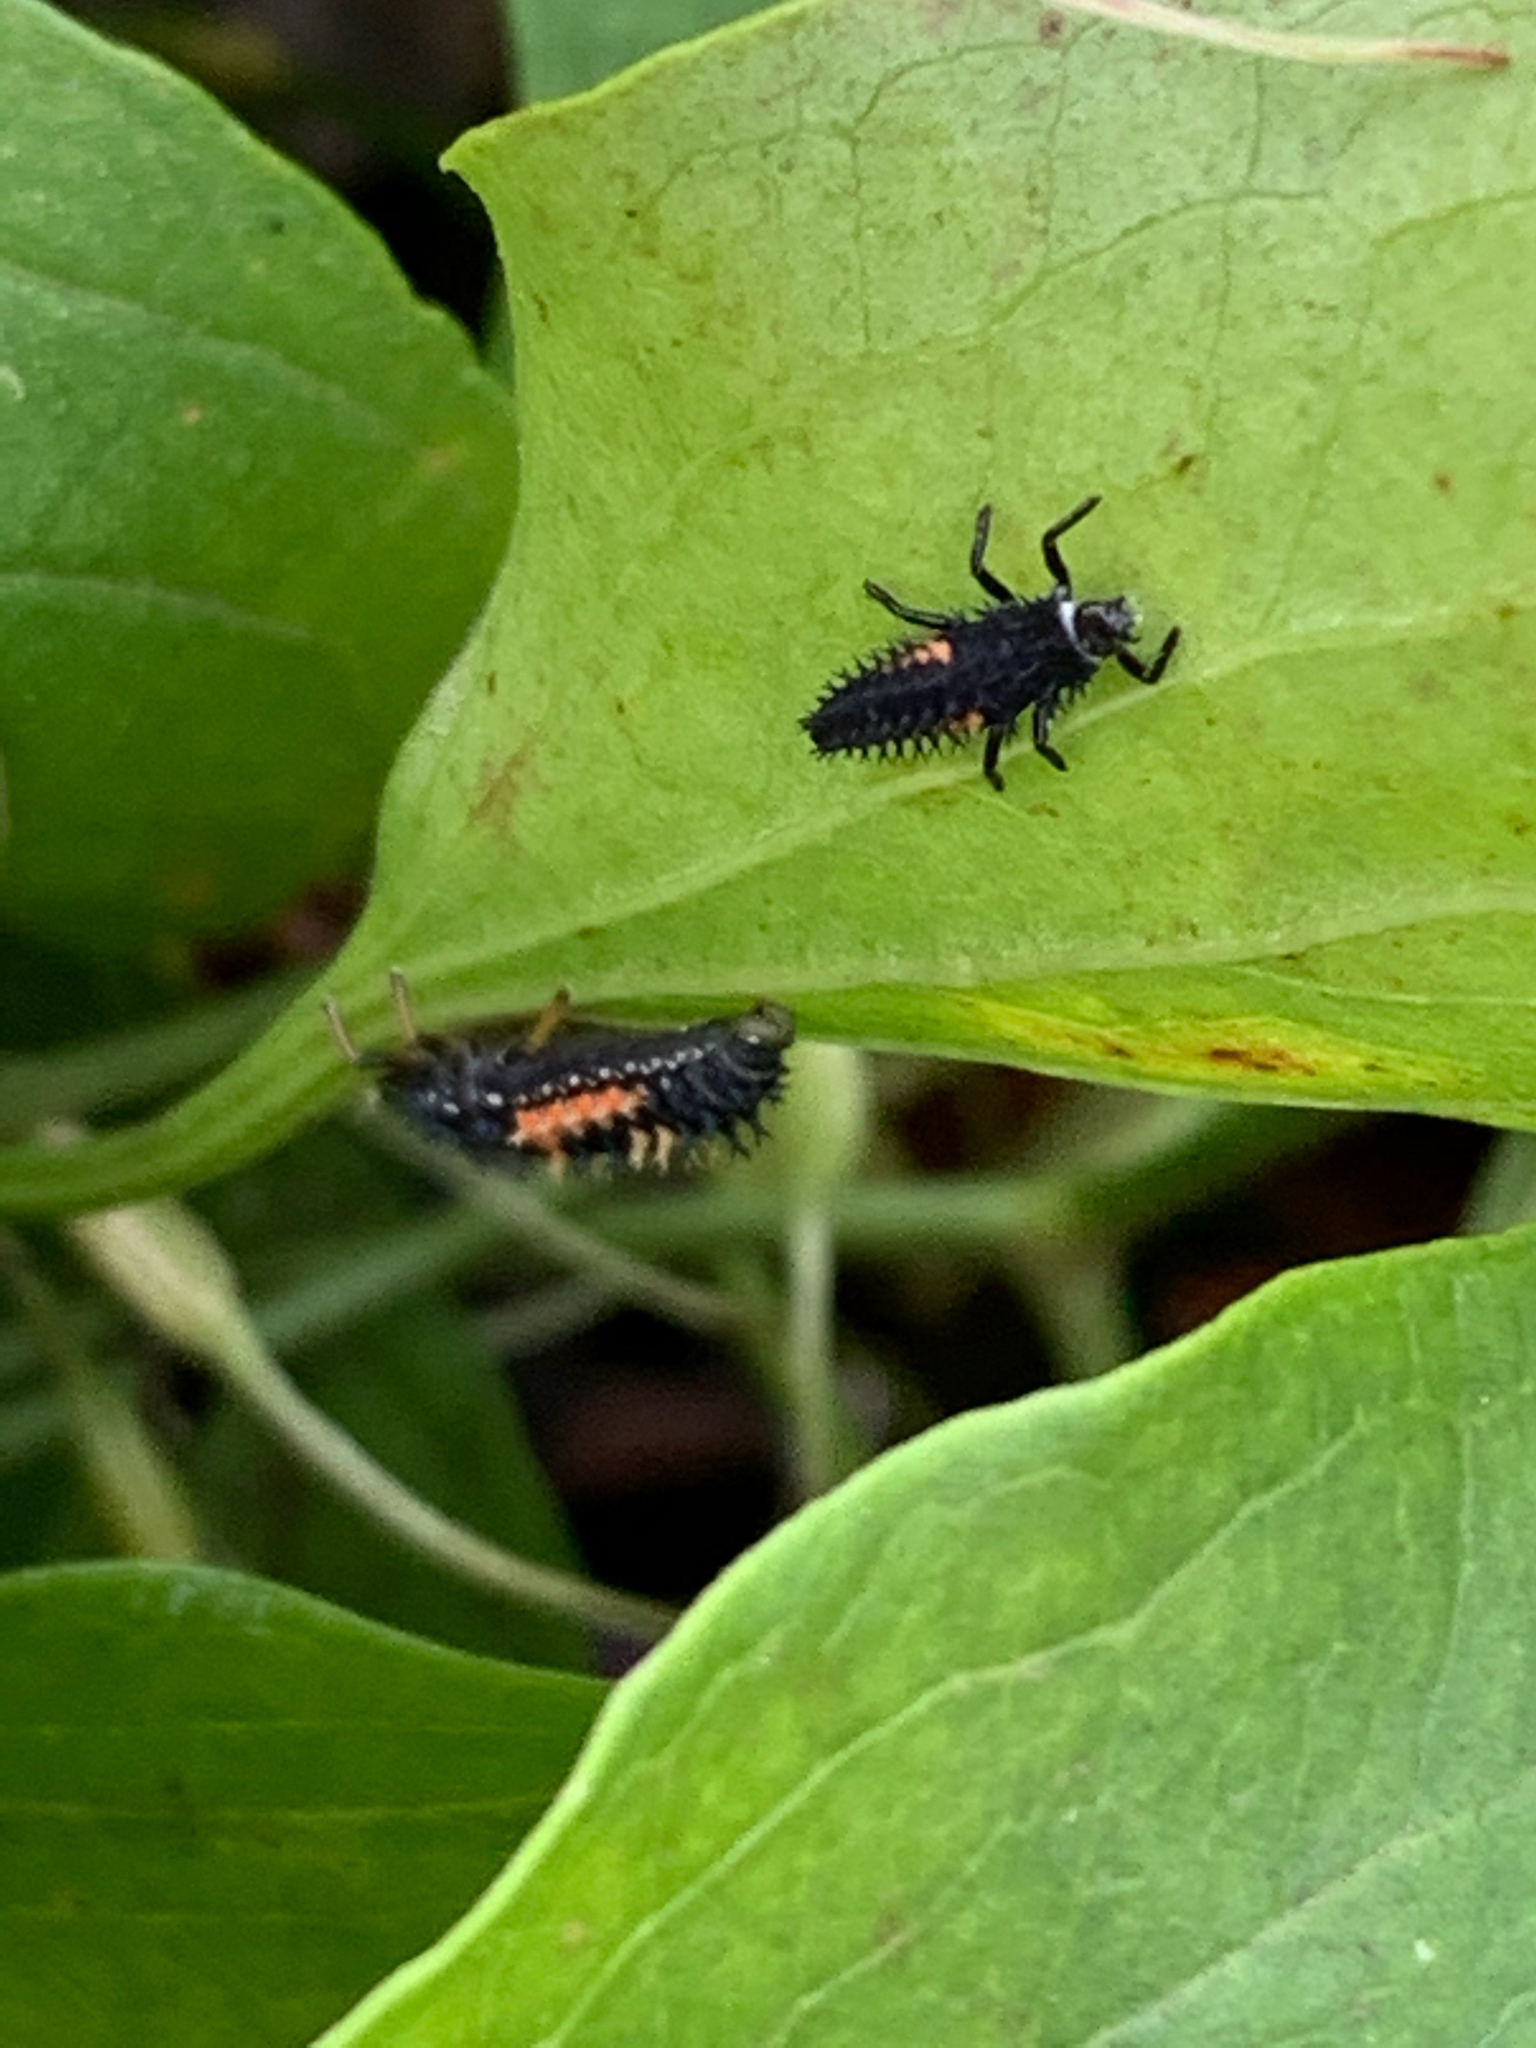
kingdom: Animalia
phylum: Arthropoda
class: Insecta
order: Coleoptera
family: Coccinellidae
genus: Harmonia
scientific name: Harmonia axyridis
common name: Harlequin ladybird
